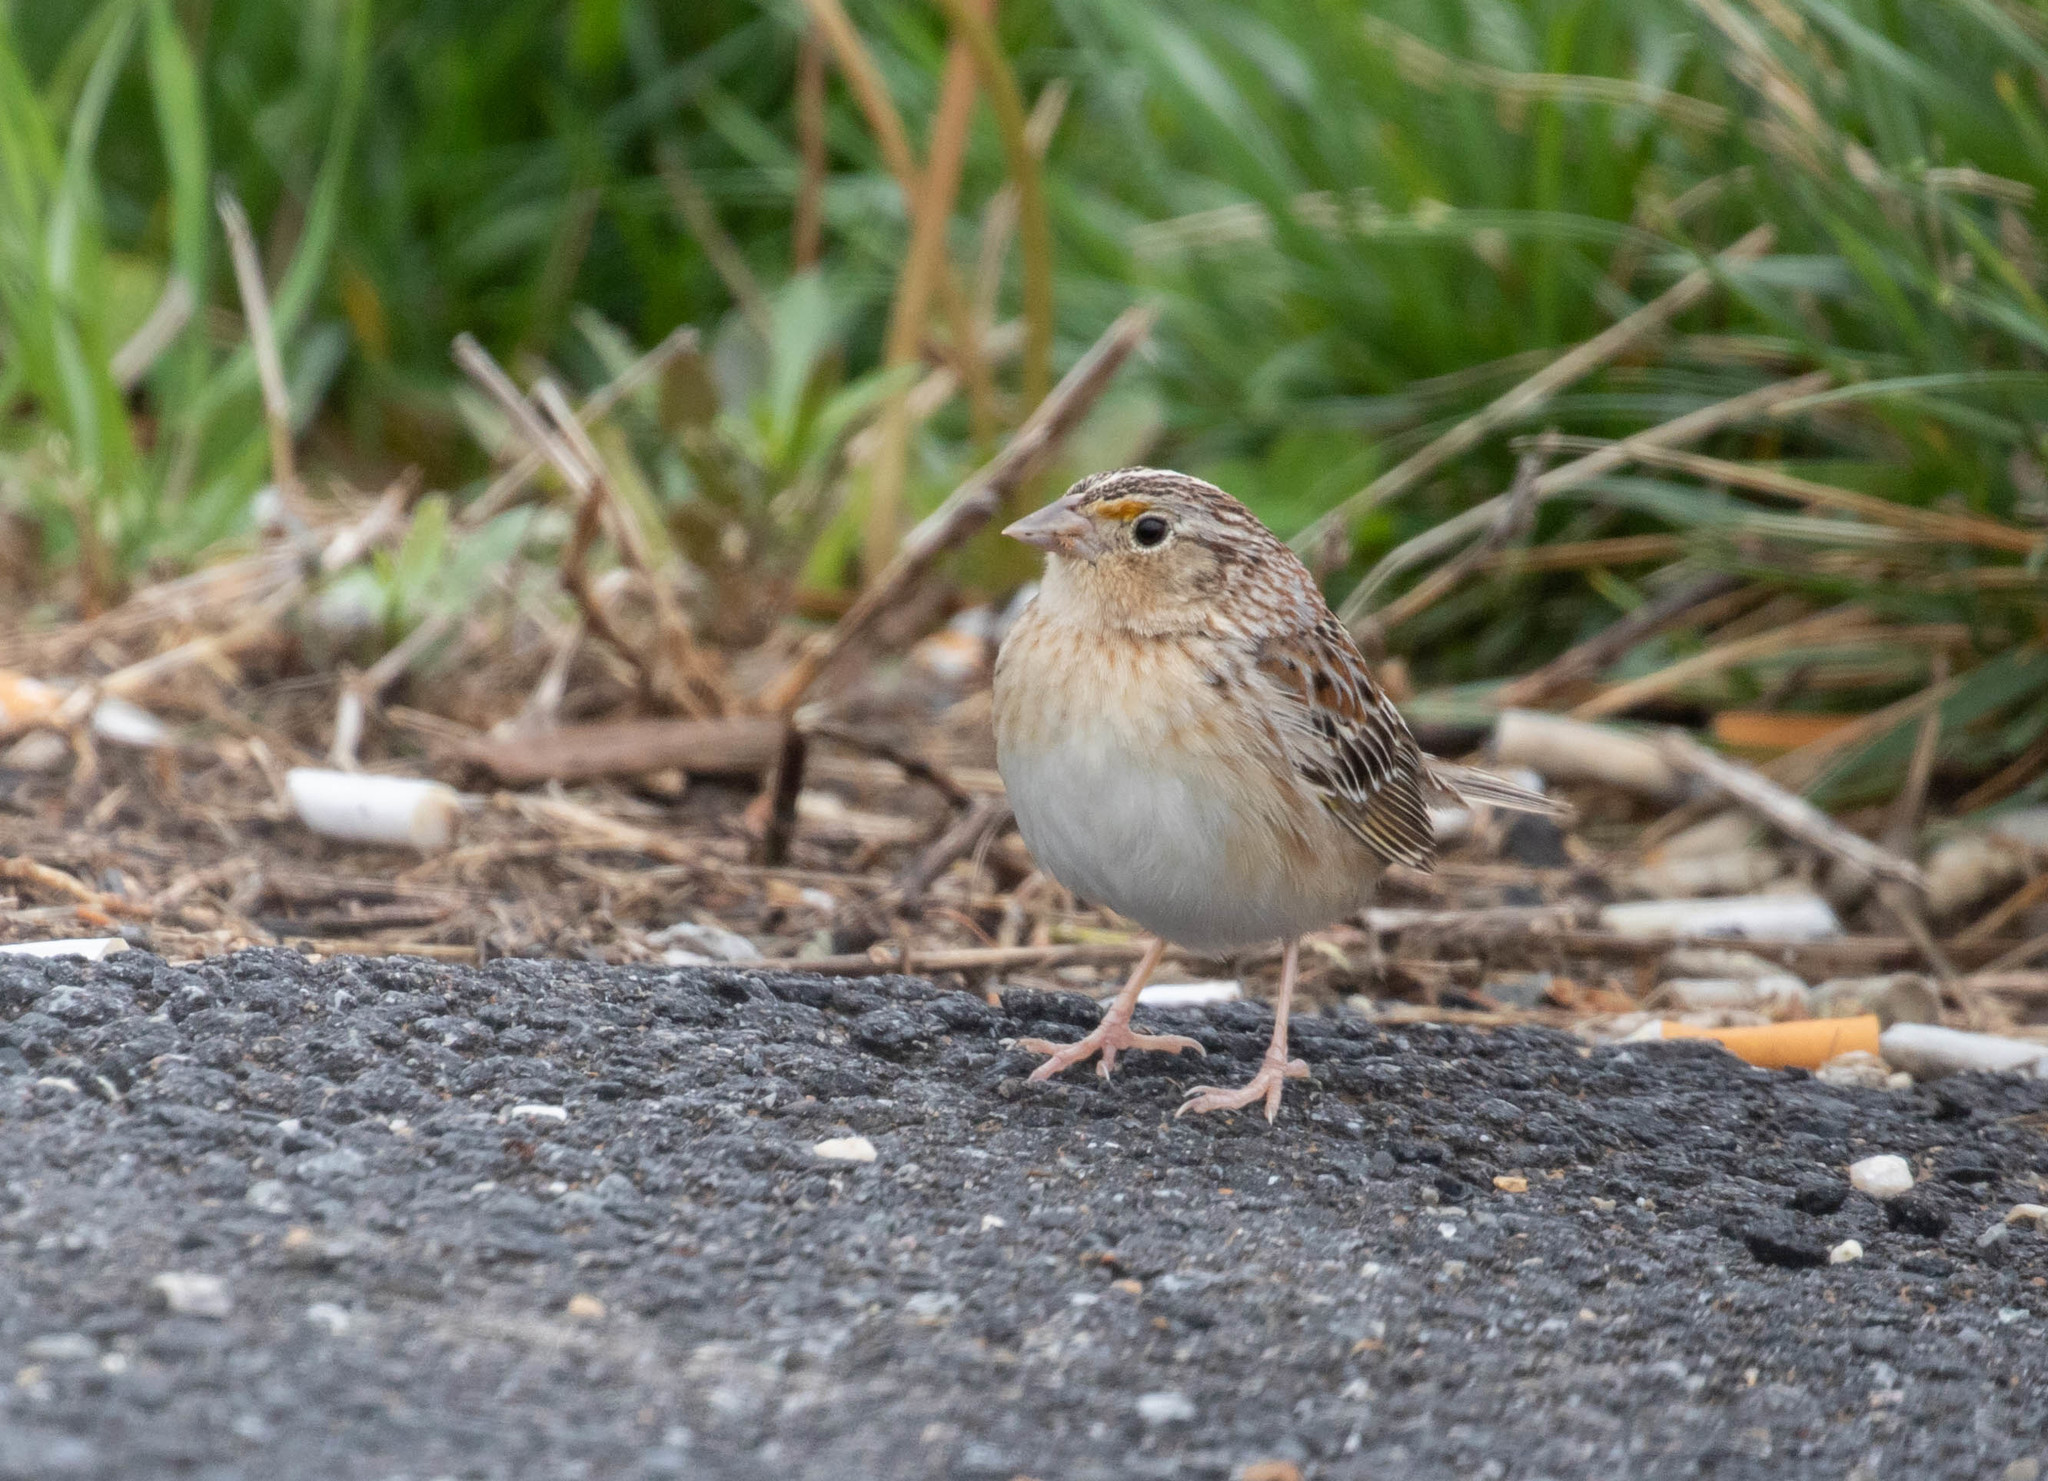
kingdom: Animalia
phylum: Chordata
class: Aves
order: Passeriformes
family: Passerellidae
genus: Ammodramus
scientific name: Ammodramus savannarum
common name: Grasshopper sparrow
